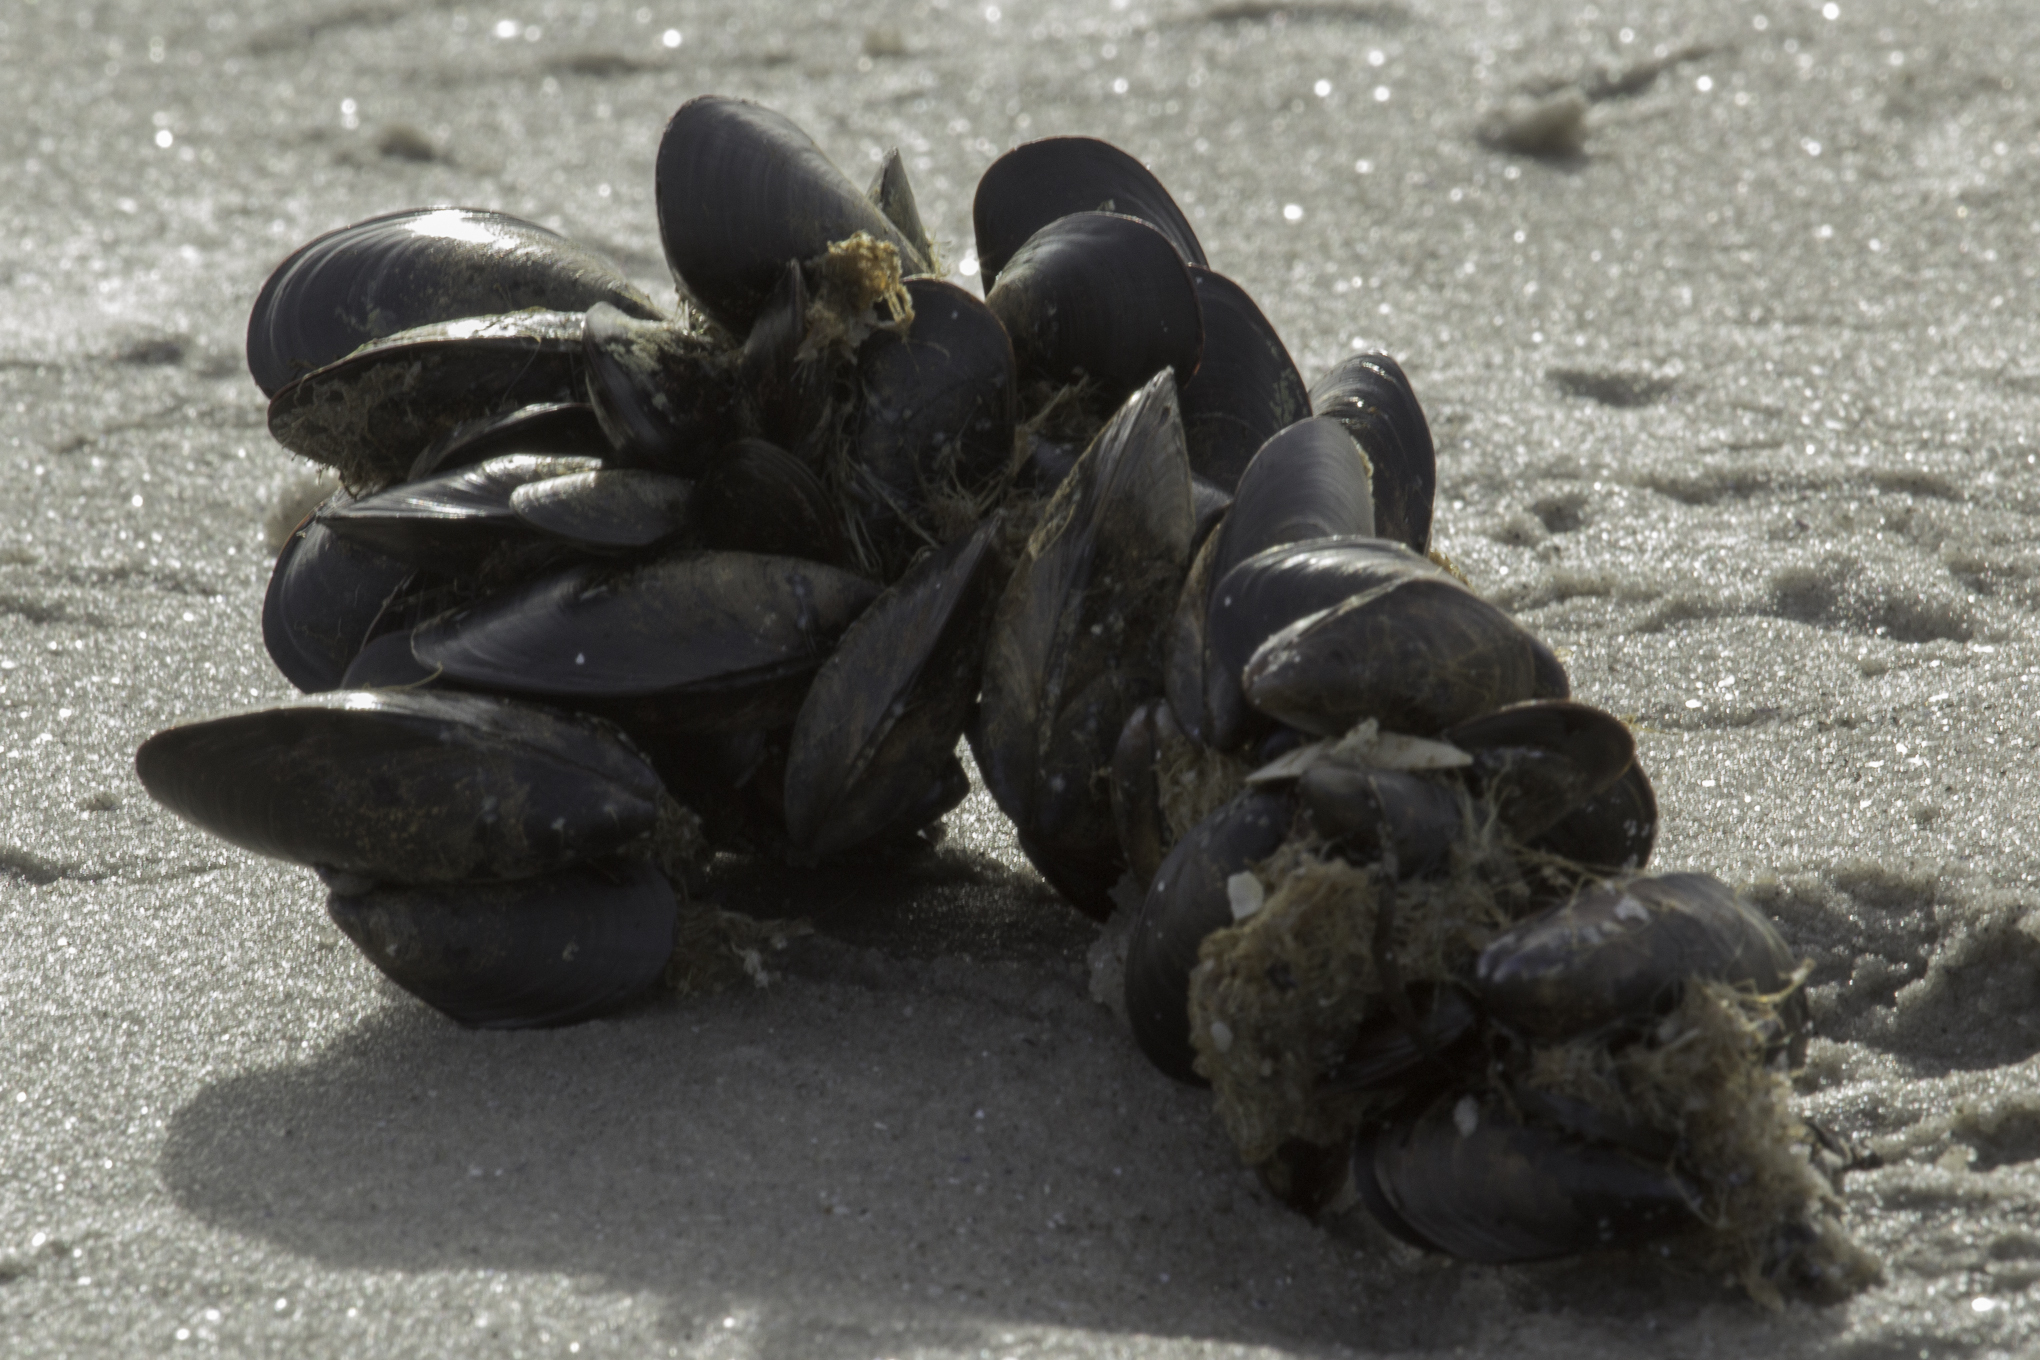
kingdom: Animalia
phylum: Mollusca
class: Bivalvia
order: Mytilida
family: Mytilidae
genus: Mytilus
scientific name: Mytilus edulis
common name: Blue mussel
